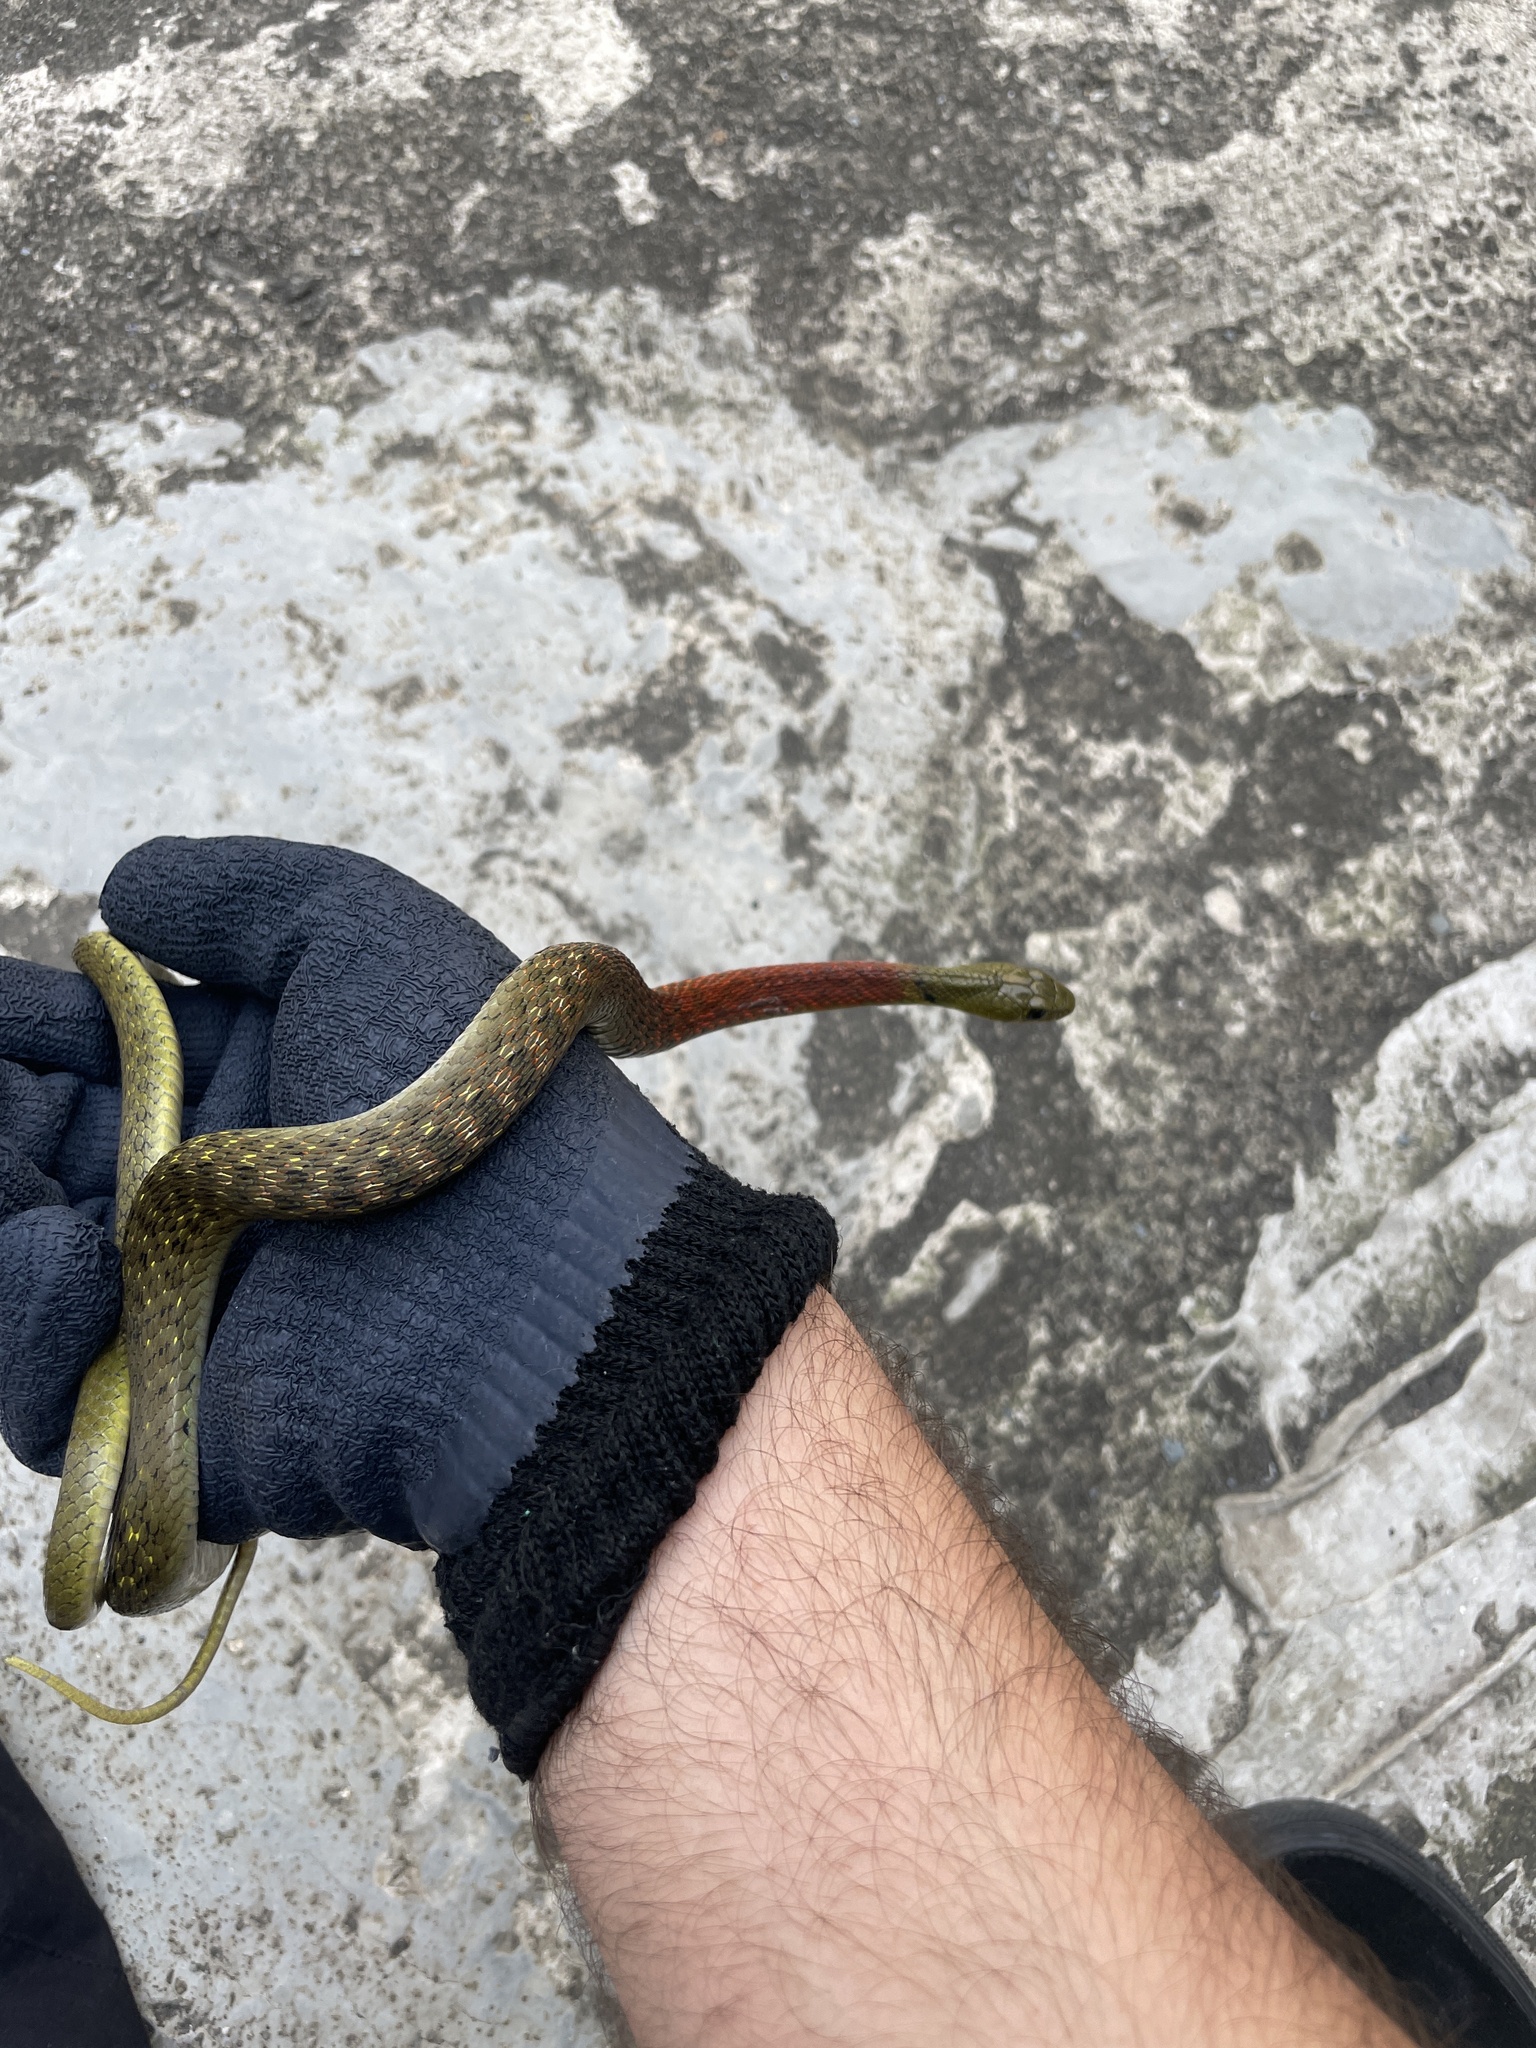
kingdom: Animalia
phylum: Chordata
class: Squamata
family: Colubridae
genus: Rhabdophis
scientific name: Rhabdophis helleri
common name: Heller’s red-necked keelback
